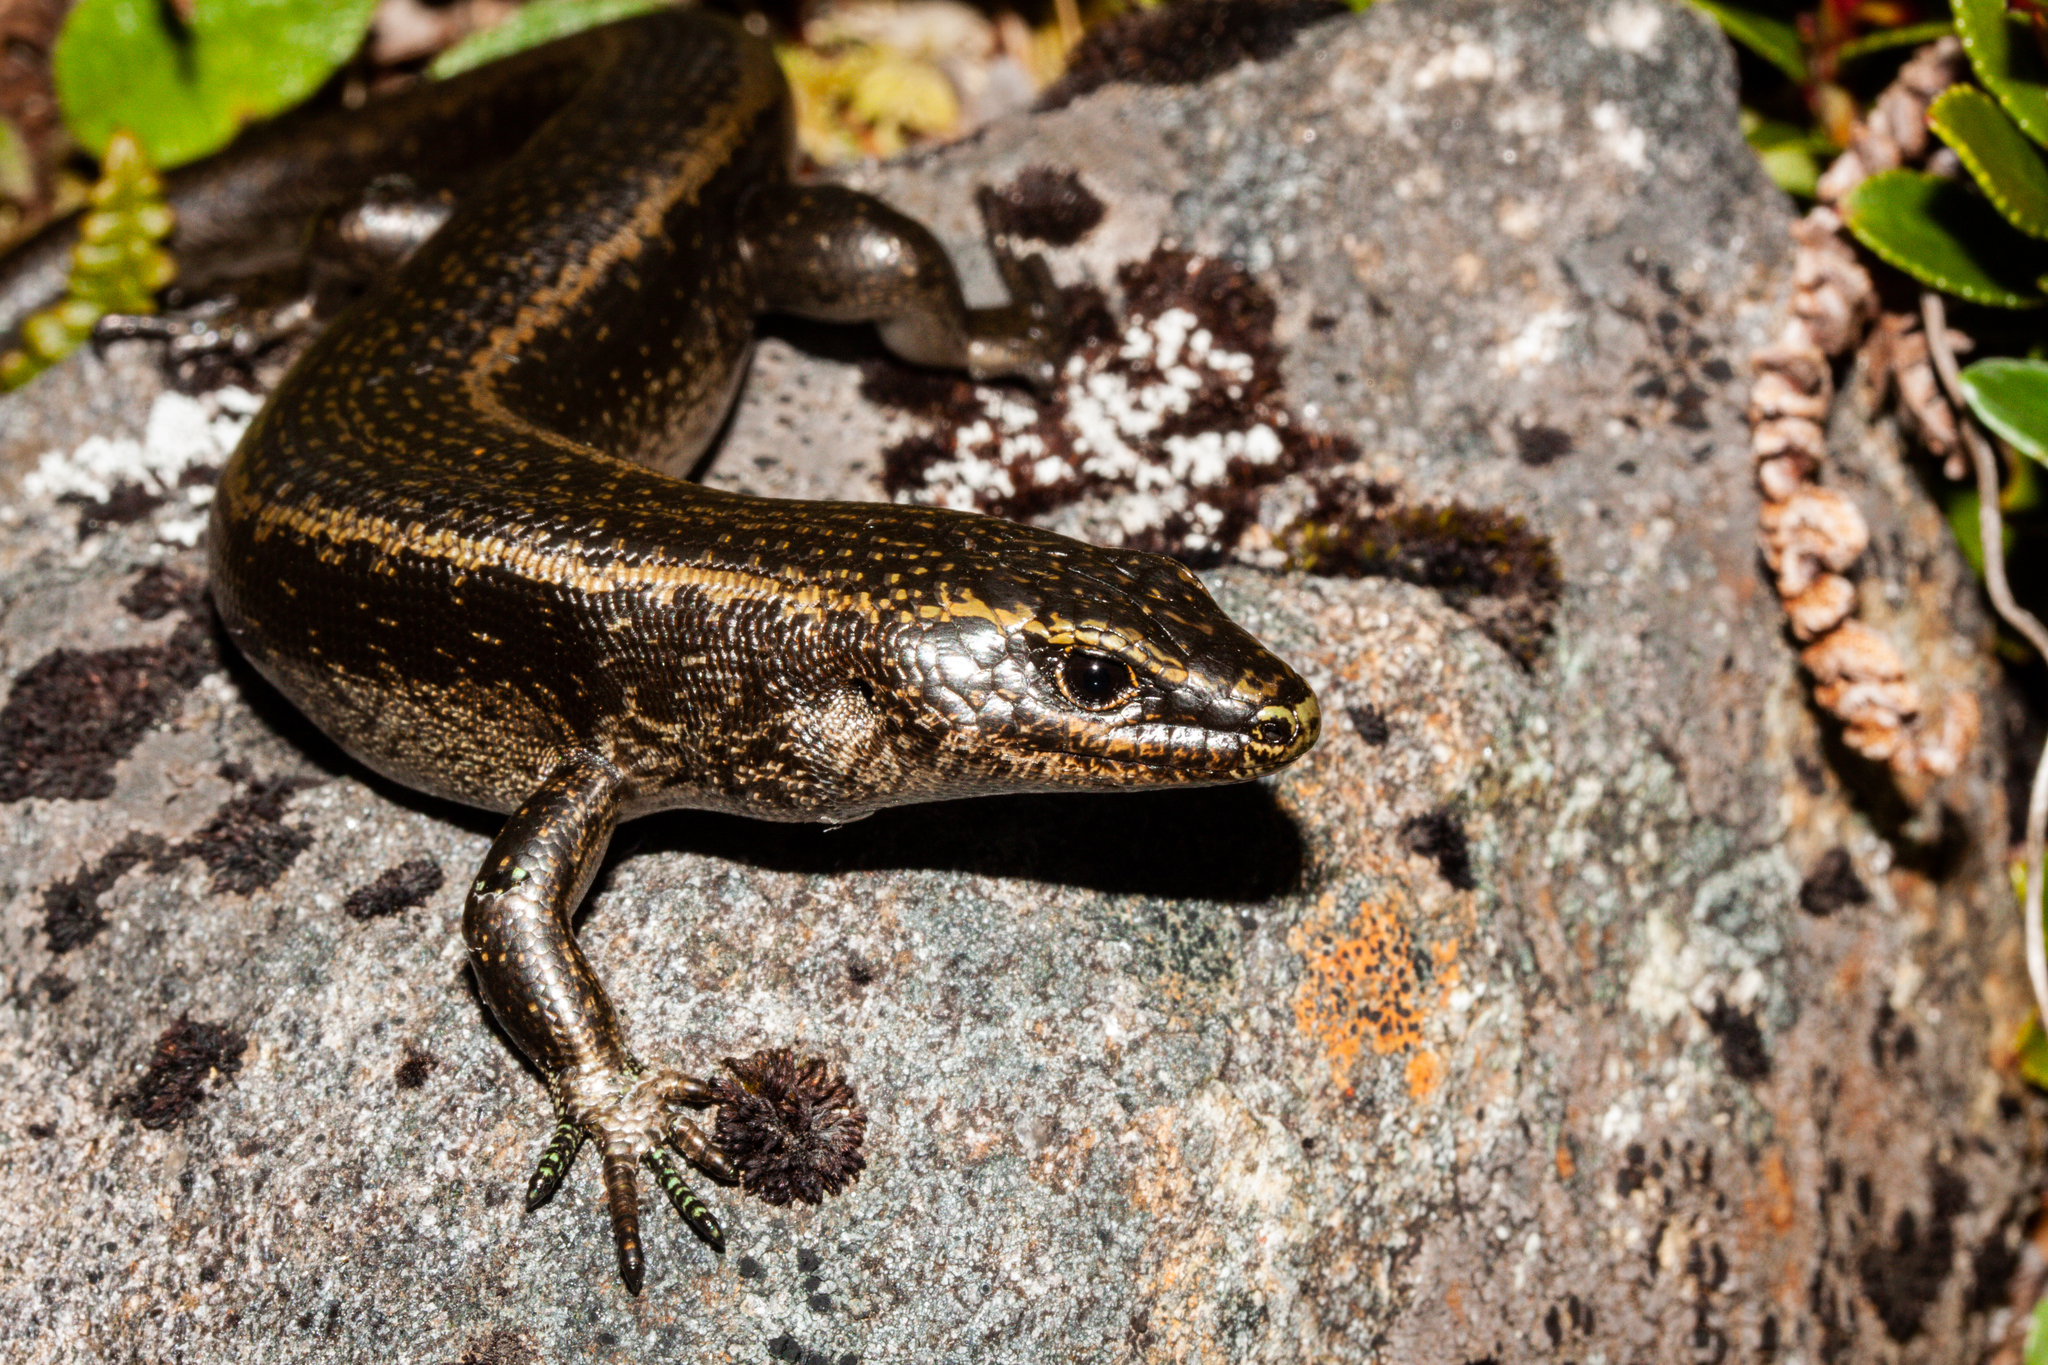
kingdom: Animalia
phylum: Chordata
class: Squamata
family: Scincidae
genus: Oligosoma
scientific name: Oligosoma judgei
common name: Barrier skink
